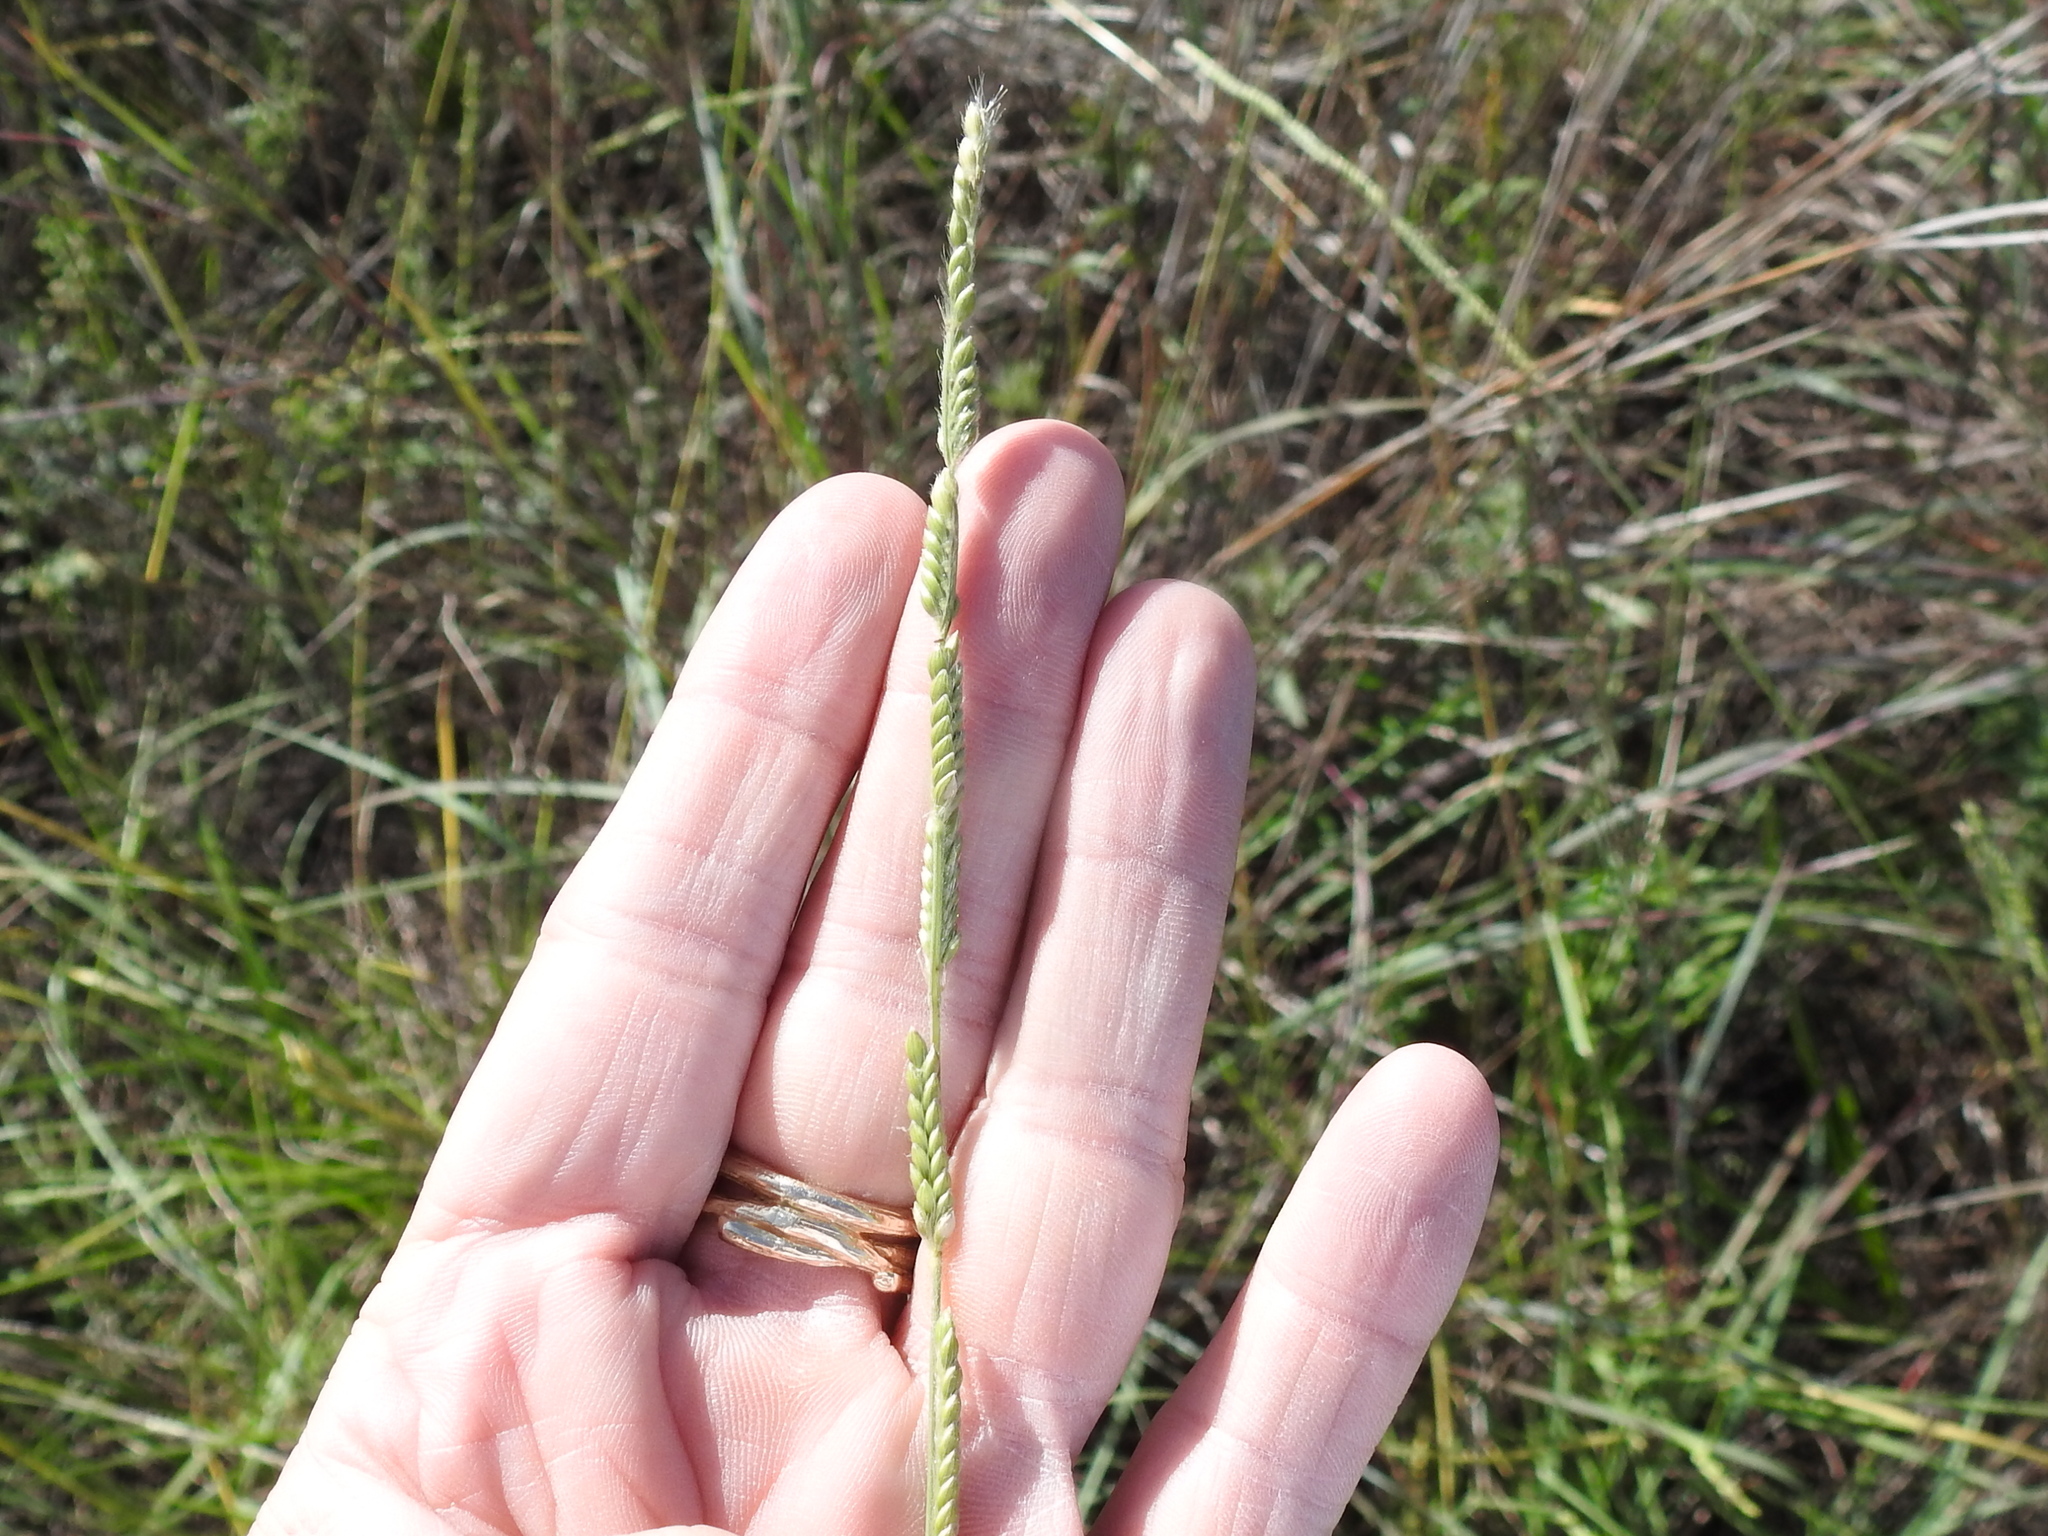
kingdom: Plantae
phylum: Tracheophyta
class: Liliopsida
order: Poales
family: Poaceae
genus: Eriochloa
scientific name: Eriochloa sericea
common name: Texas cup grass
